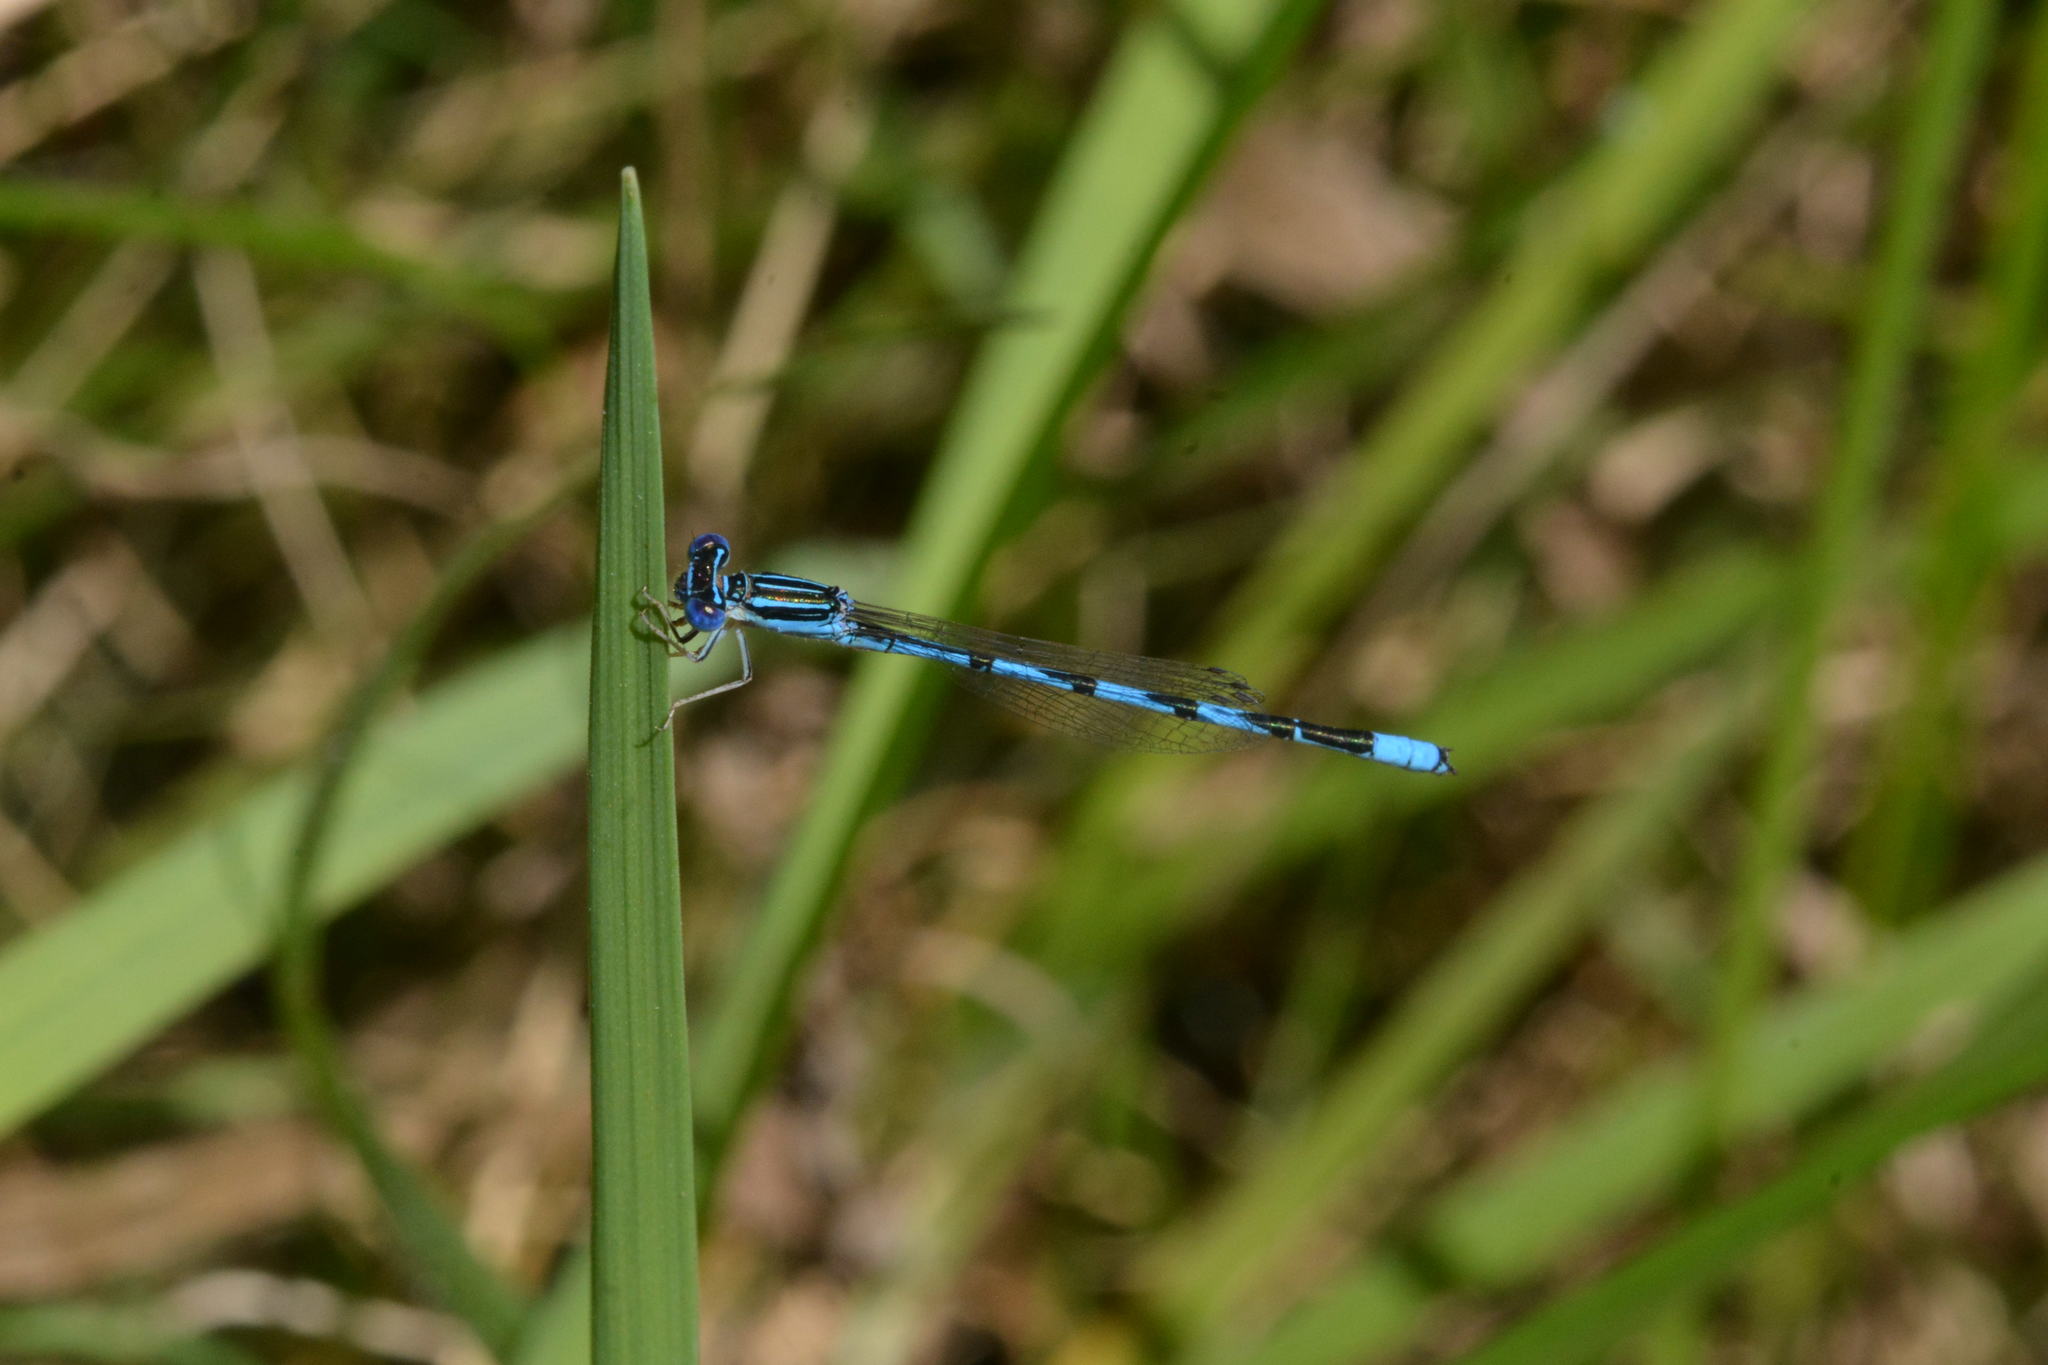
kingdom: Animalia
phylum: Arthropoda
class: Insecta
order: Odonata
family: Coenagrionidae
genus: Enallagma
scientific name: Enallagma basidens
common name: Double-striped bluet
